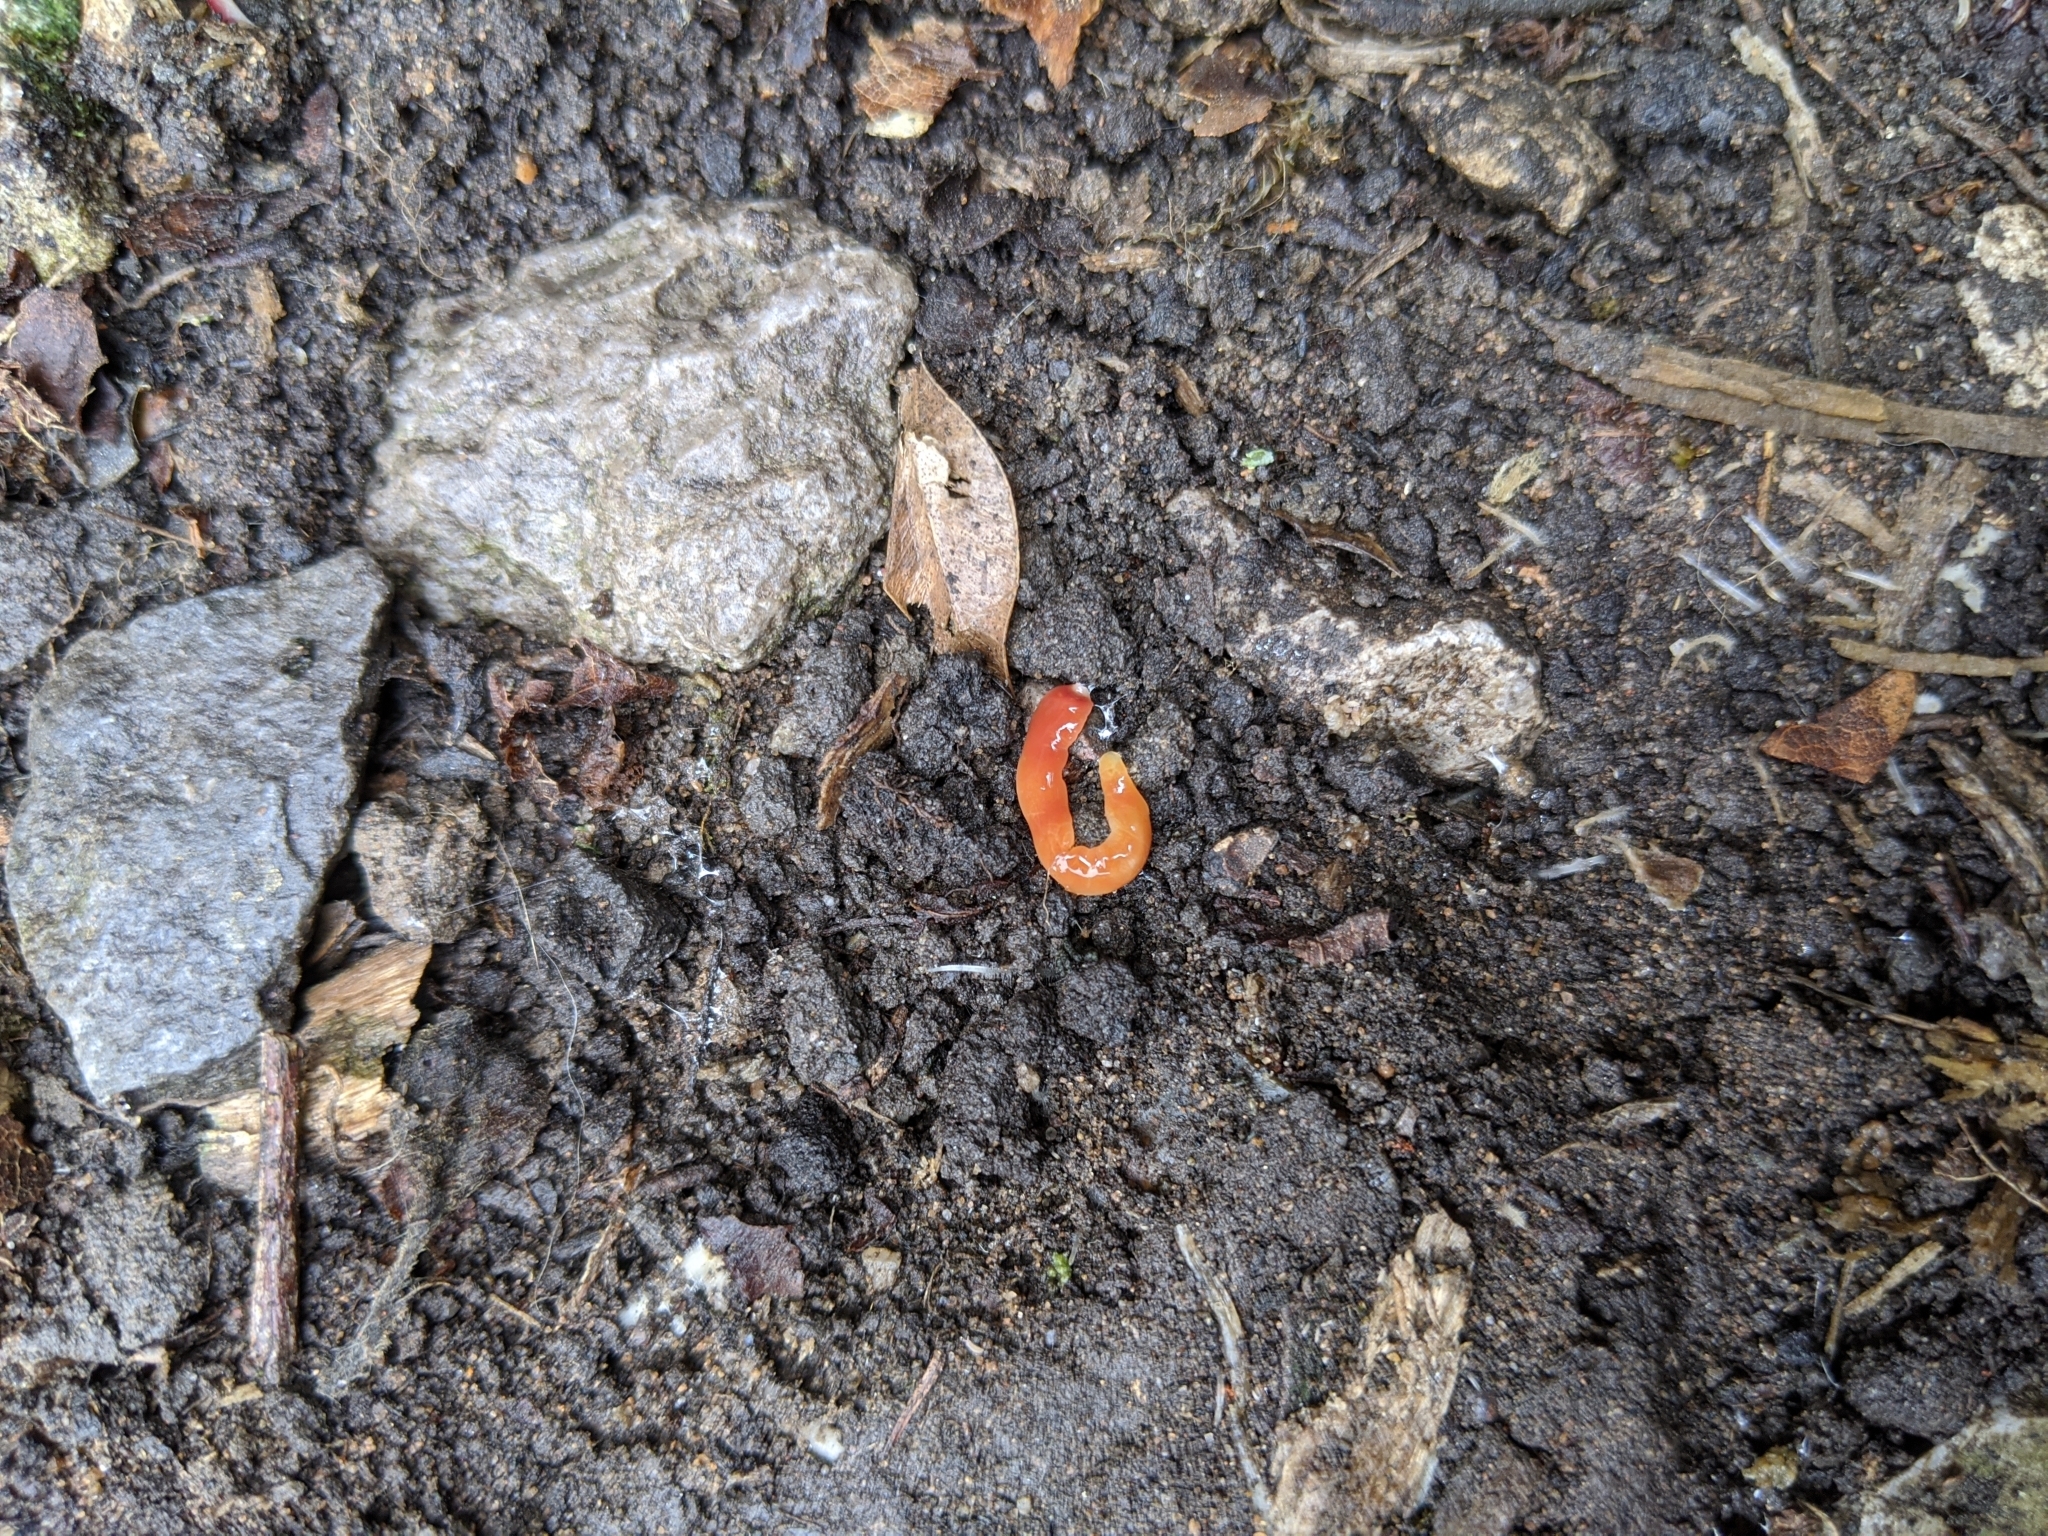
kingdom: Animalia
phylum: Platyhelminthes
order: Tricladida
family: Geoplanidae
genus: Australoplana
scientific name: Australoplana sanguinea
